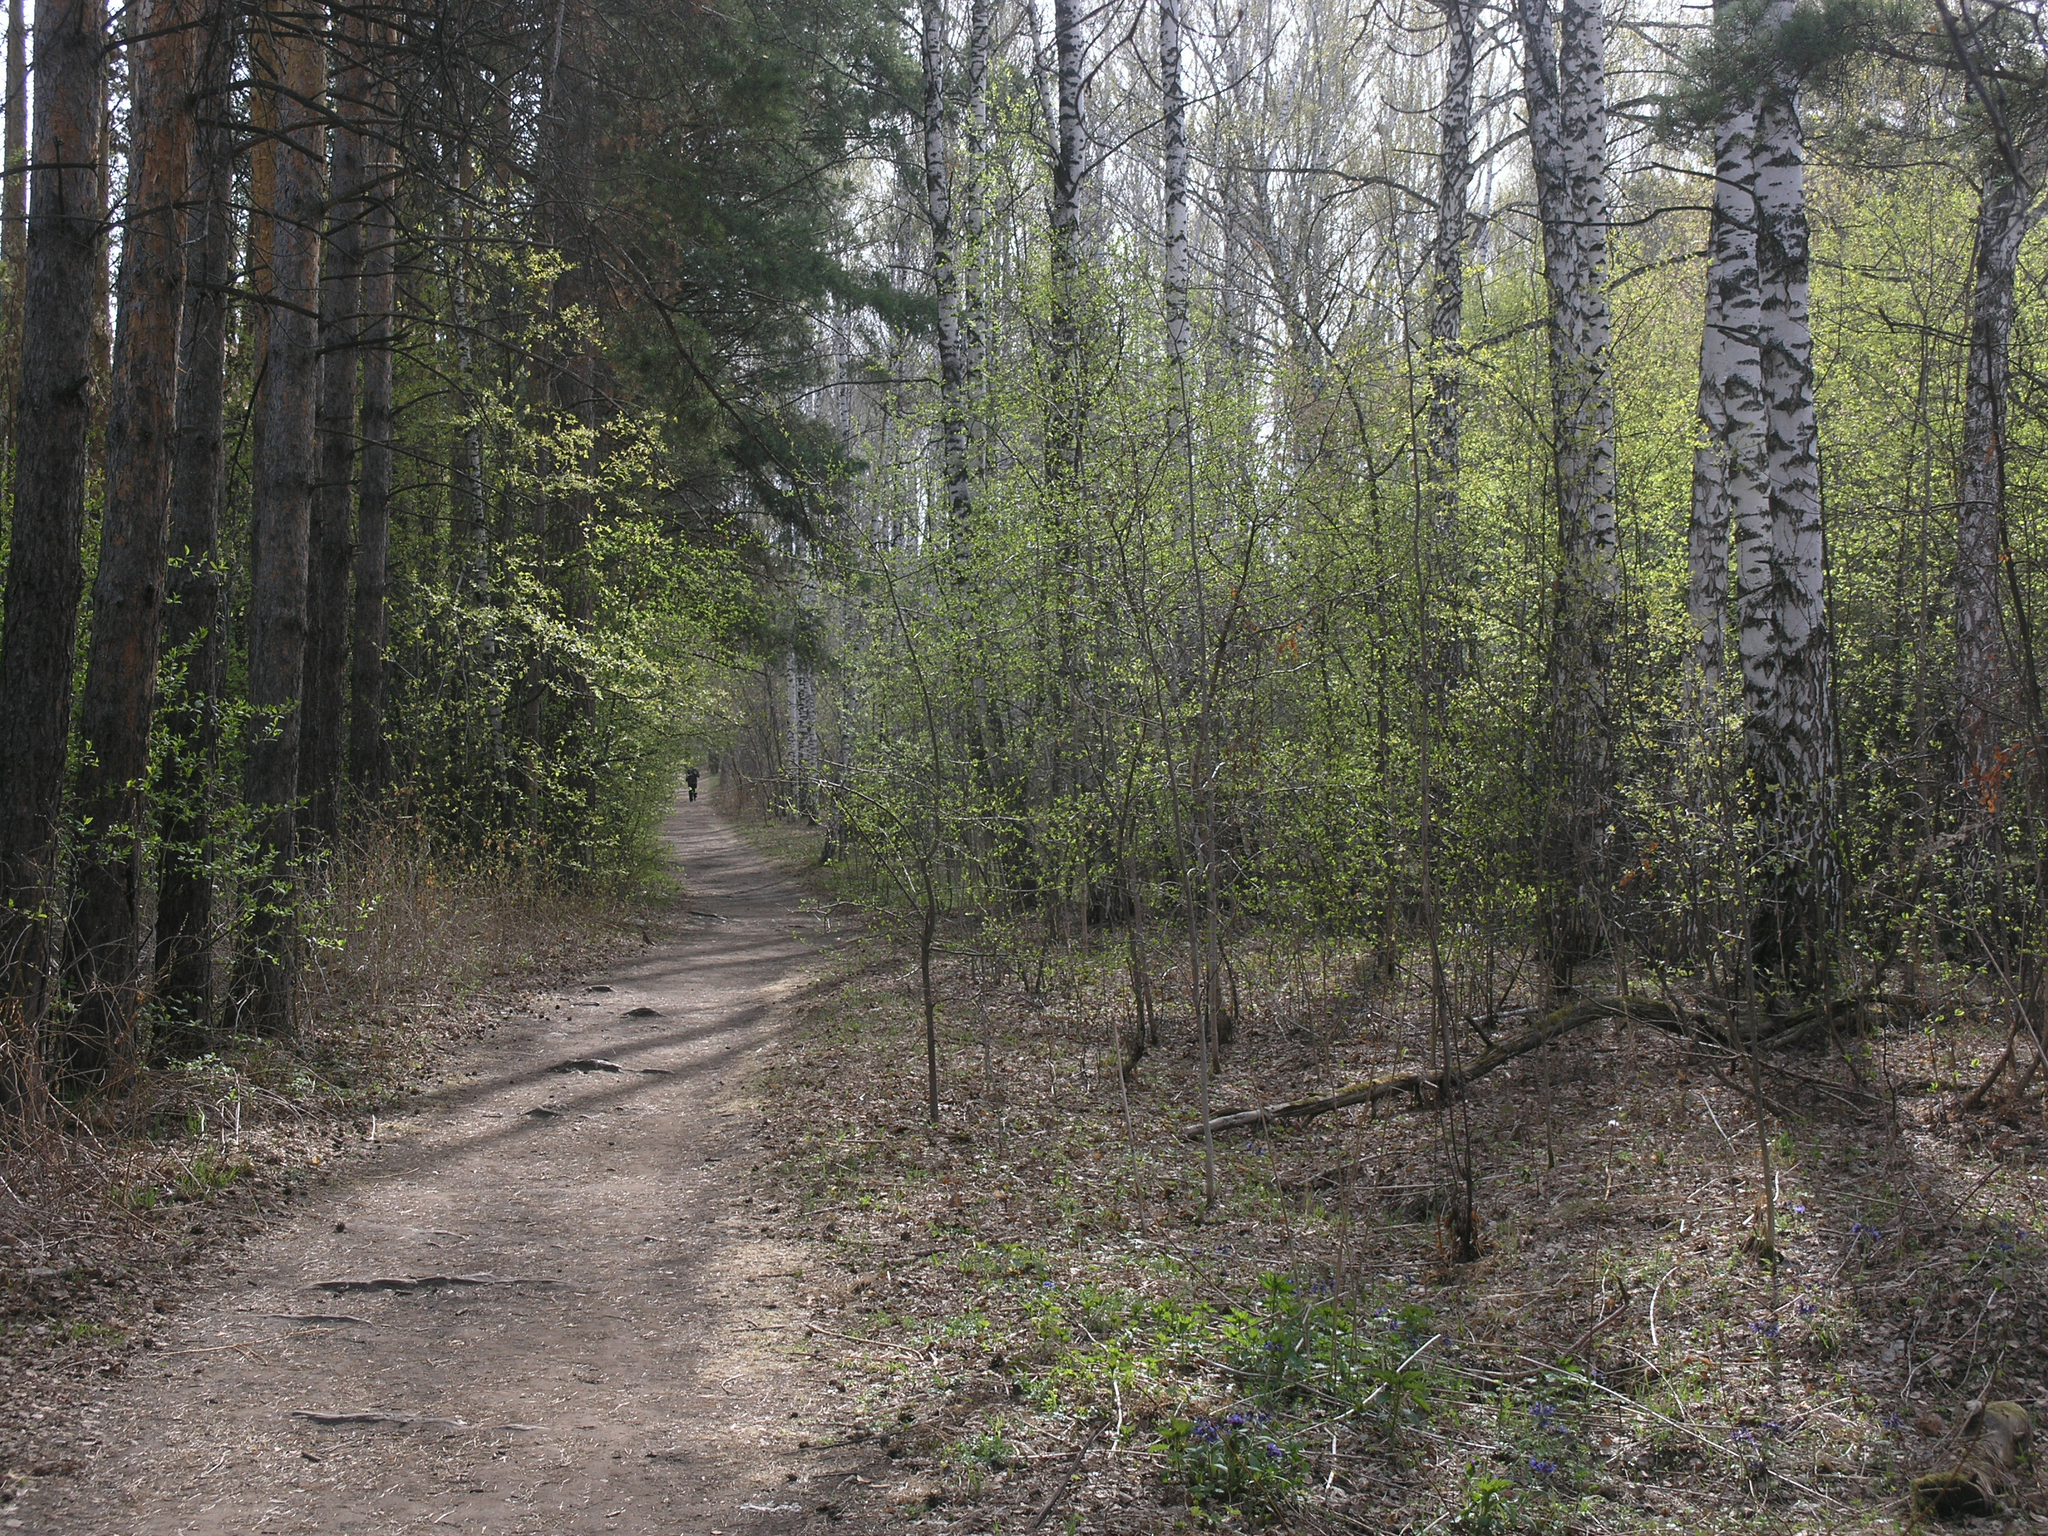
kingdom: Plantae
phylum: Tracheophyta
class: Magnoliopsida
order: Rosales
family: Rosaceae
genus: Prunus
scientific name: Prunus padus
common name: Bird cherry
